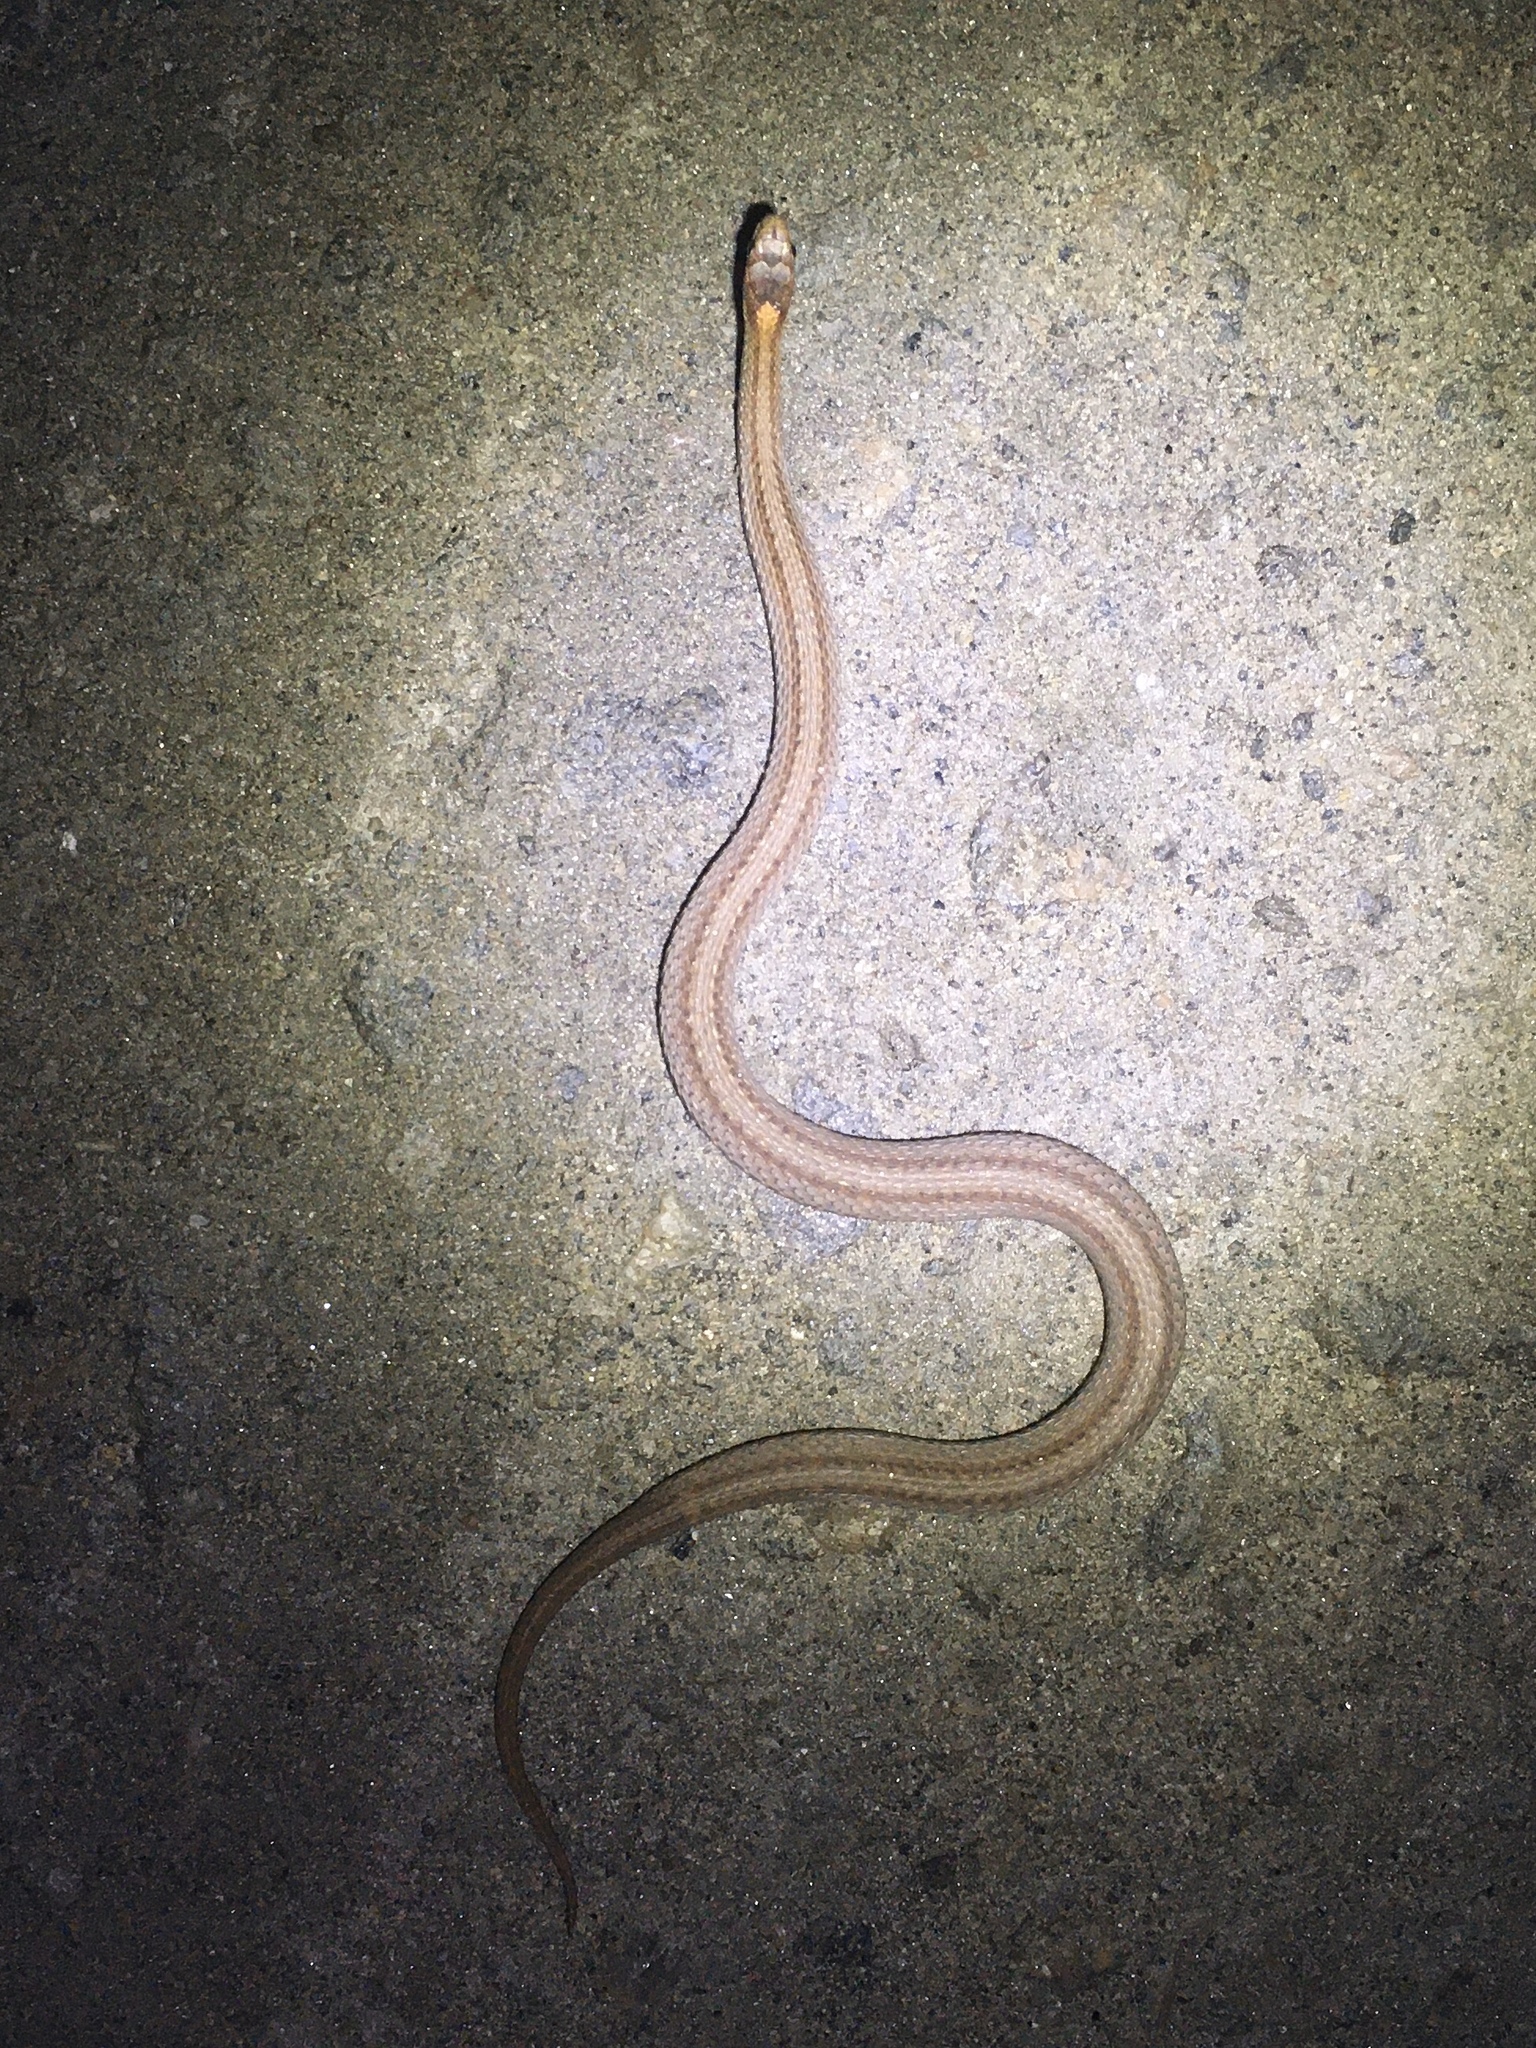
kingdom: Animalia
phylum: Chordata
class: Squamata
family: Colubridae
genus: Storeria
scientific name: Storeria occipitomaculata
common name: Redbelly snake
